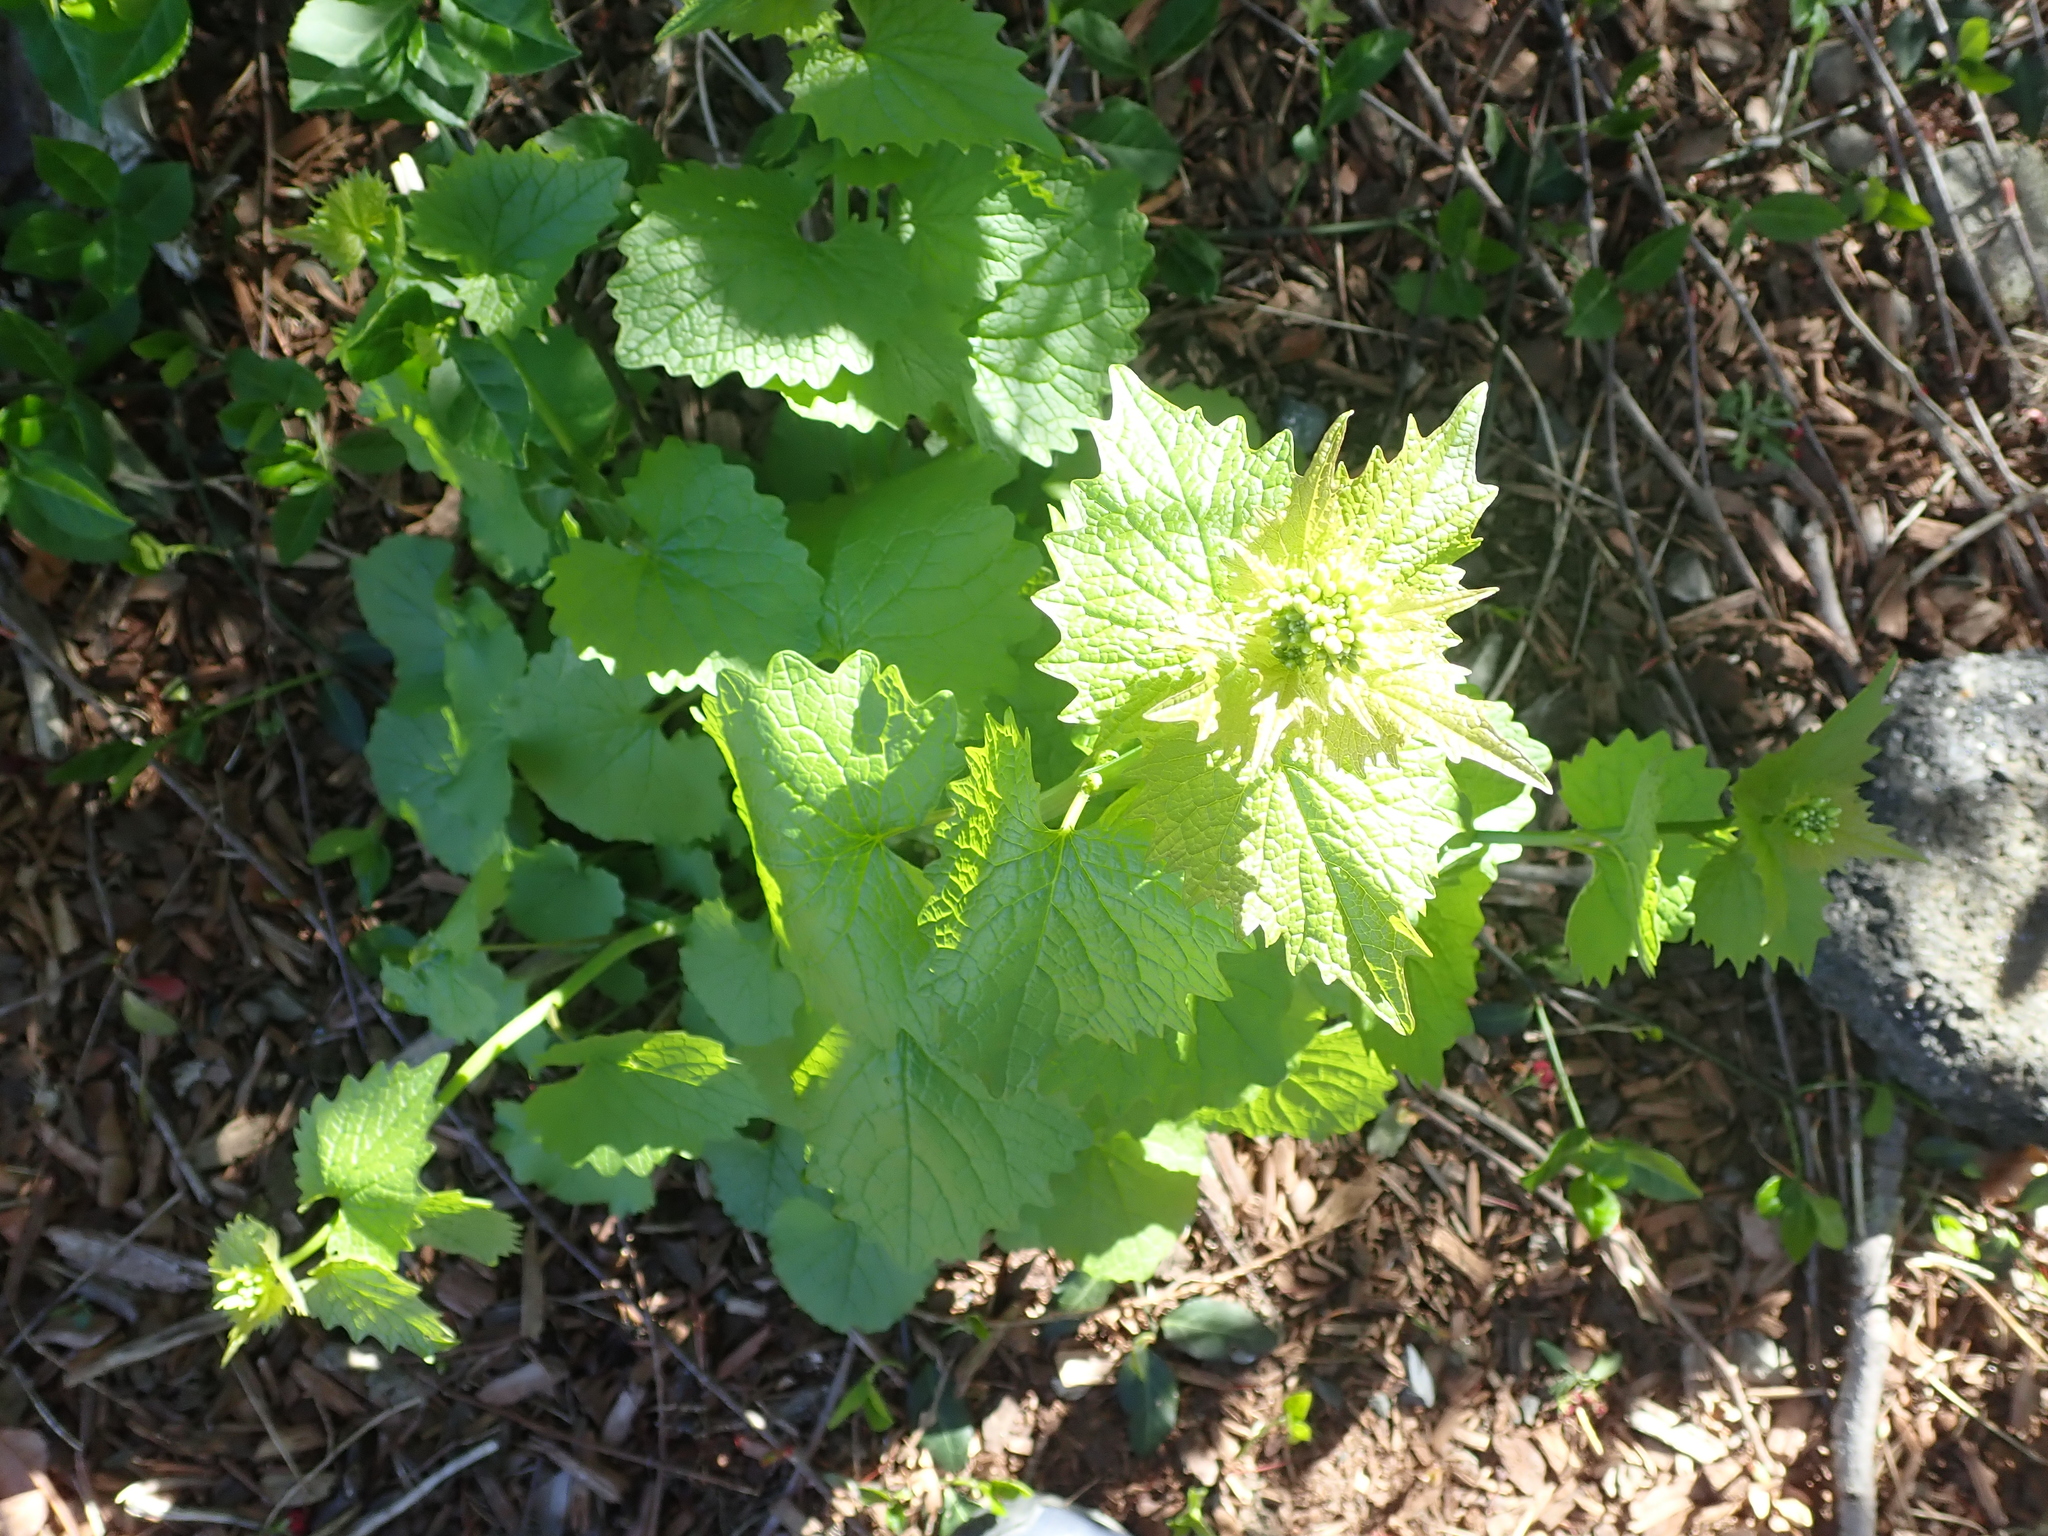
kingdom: Plantae
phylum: Tracheophyta
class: Magnoliopsida
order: Brassicales
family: Brassicaceae
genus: Alliaria
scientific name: Alliaria petiolata
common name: Garlic mustard
